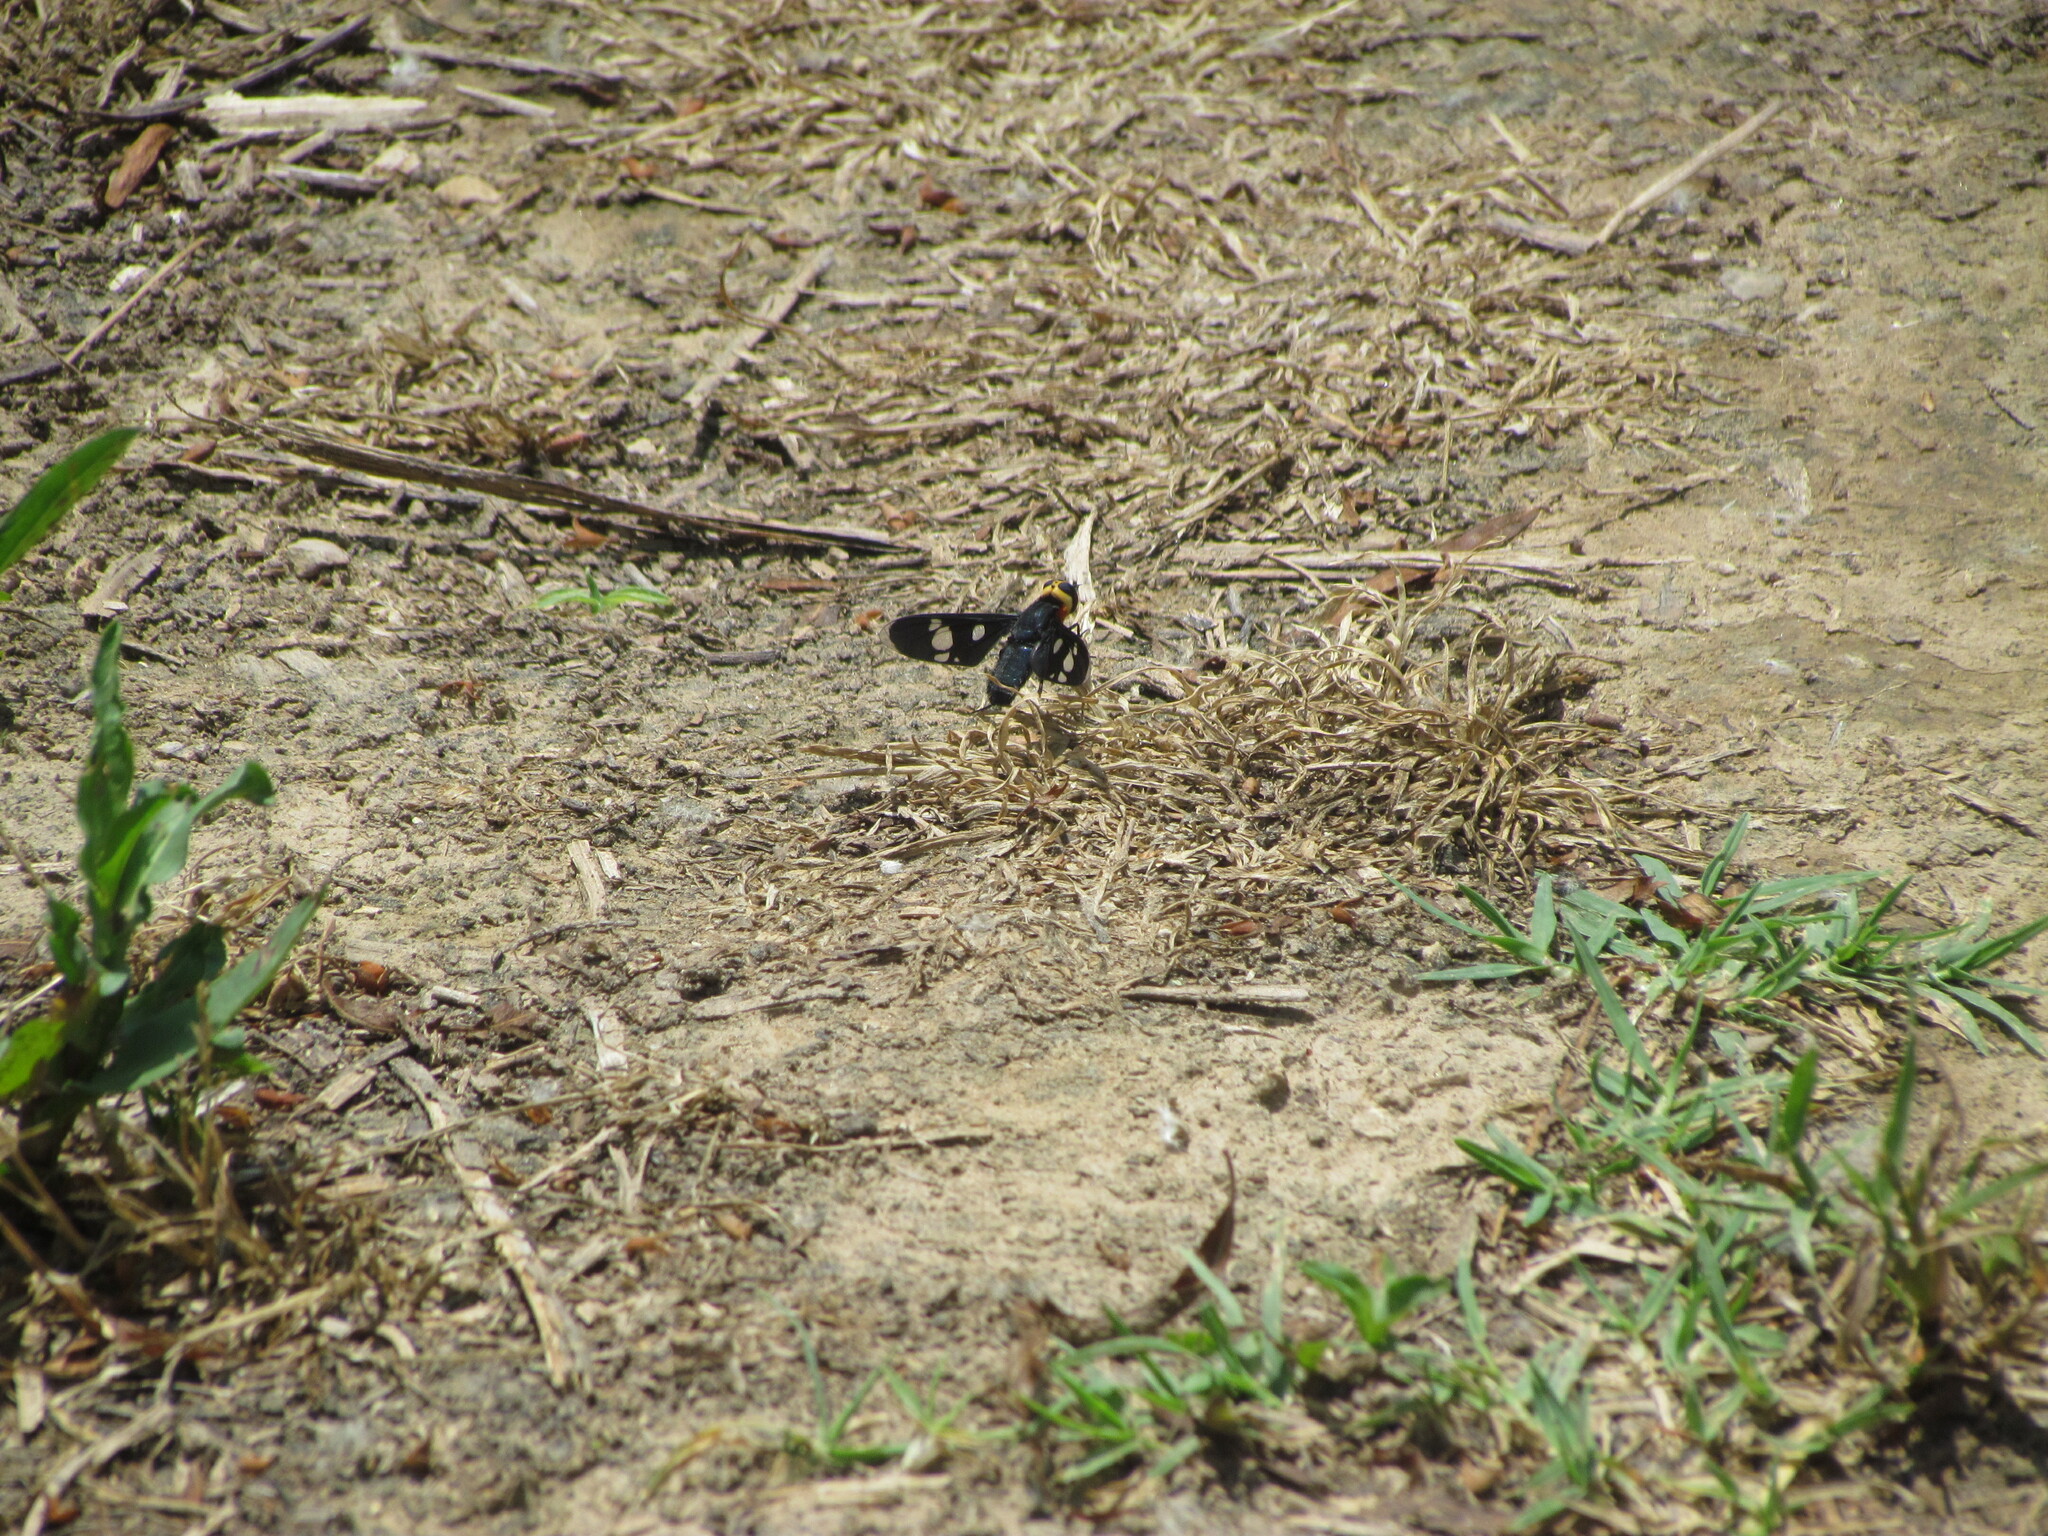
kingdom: Animalia
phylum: Arthropoda
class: Insecta
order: Diptera
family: Bombyliidae
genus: Hyperalonia
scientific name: Hyperalonia morio
